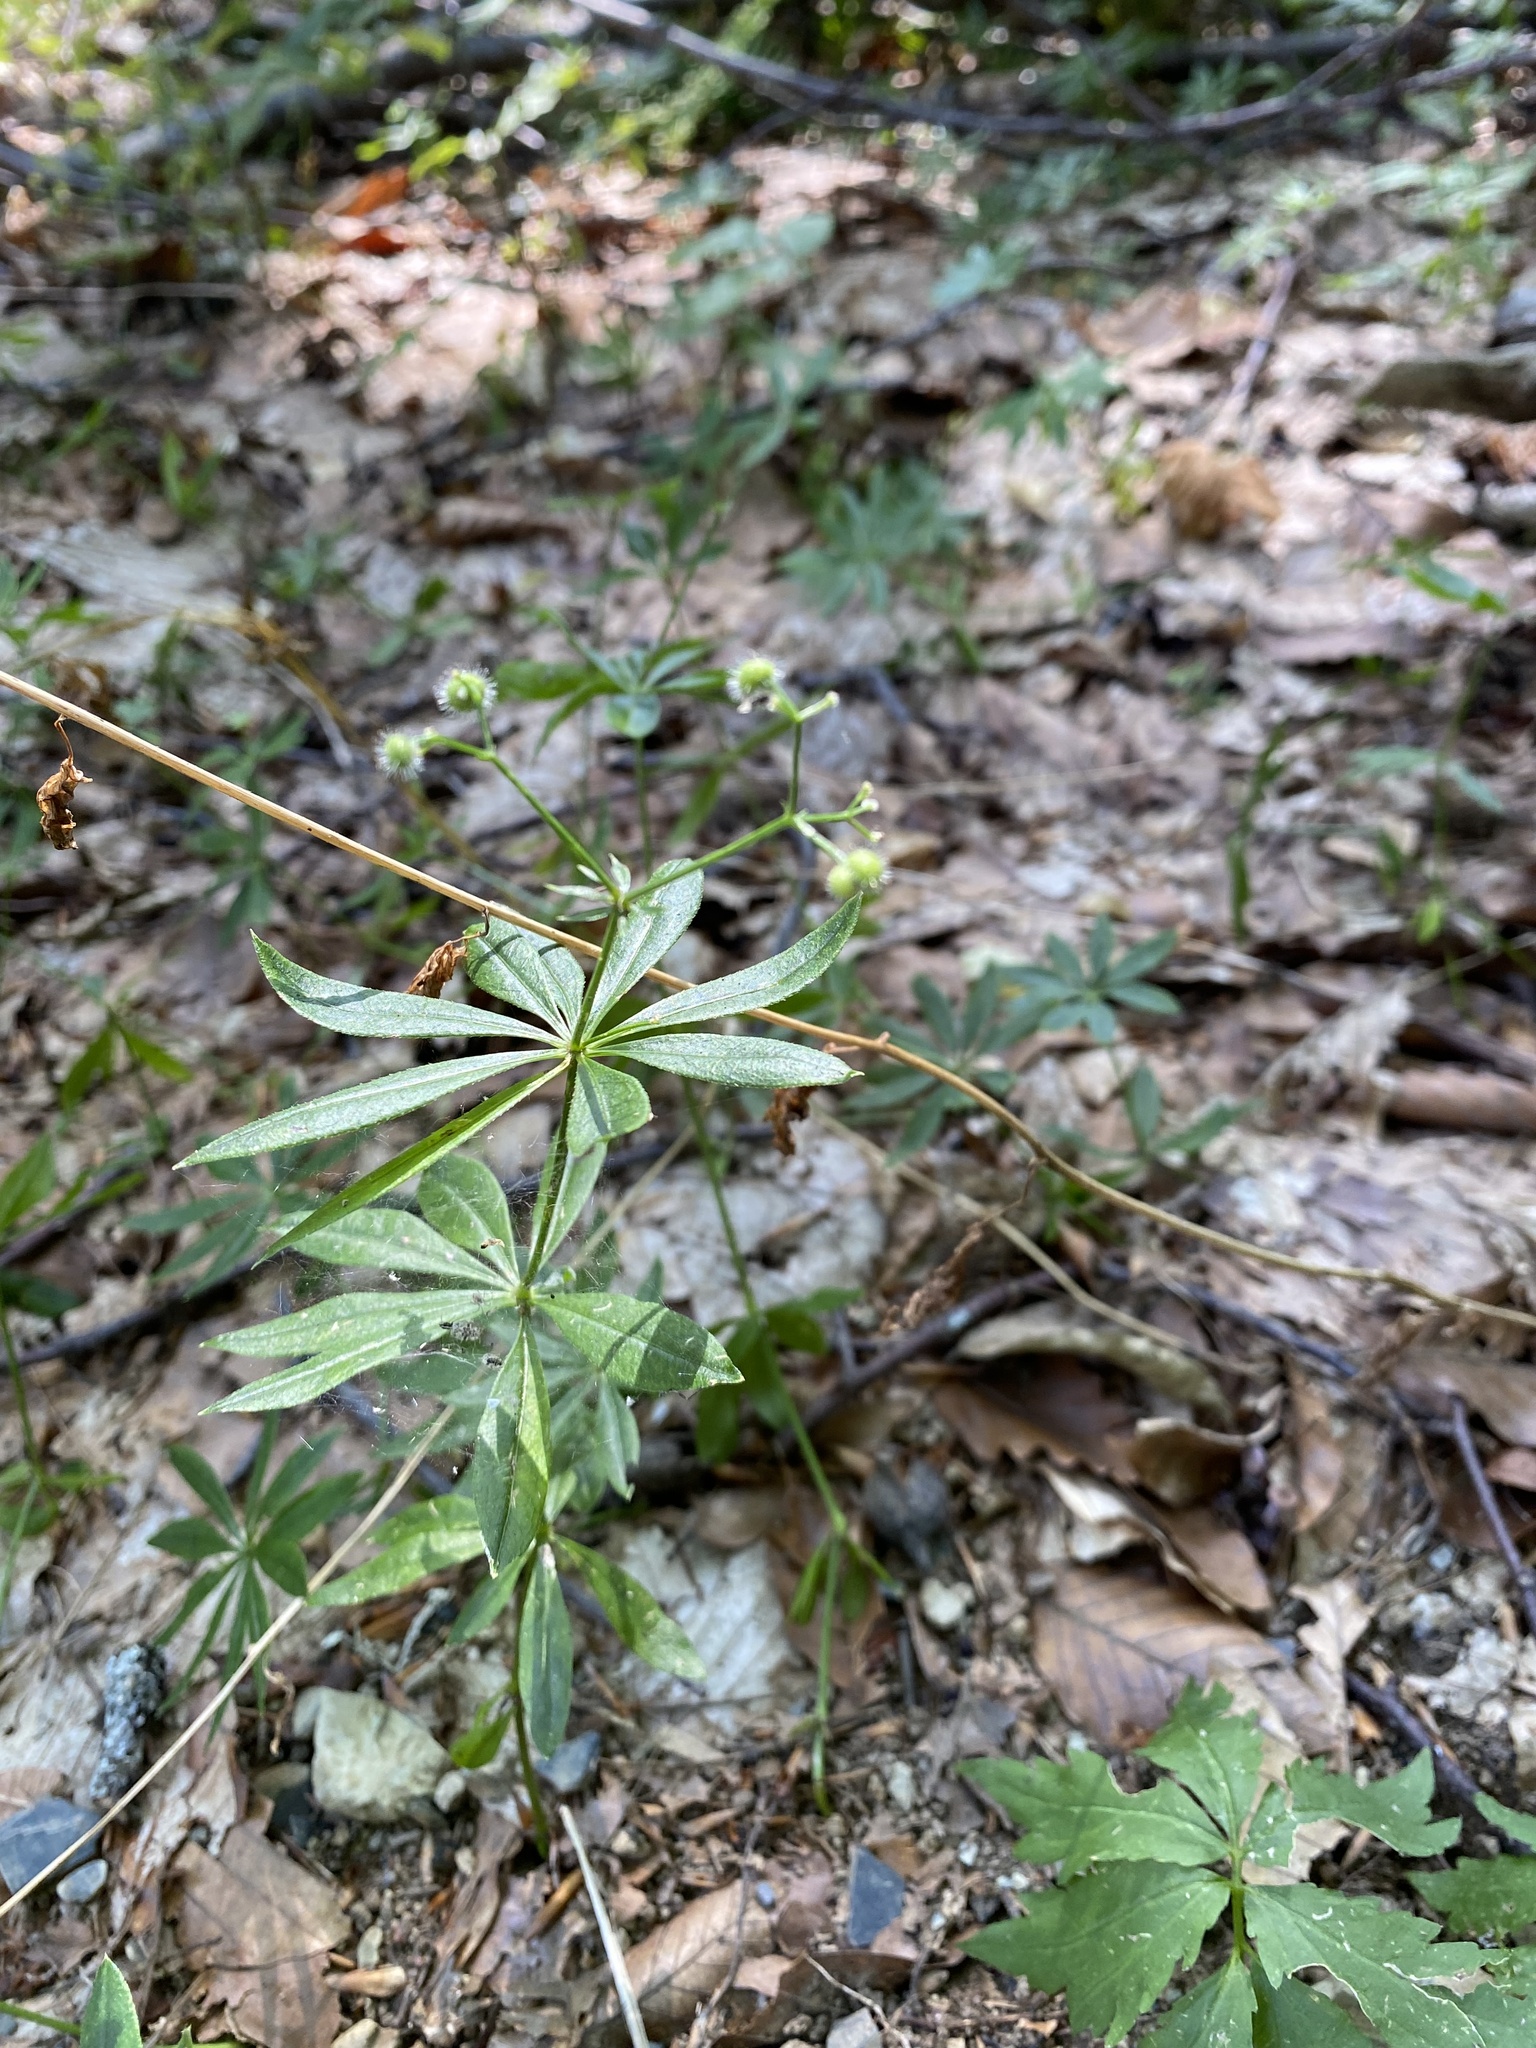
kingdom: Plantae
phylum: Tracheophyta
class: Magnoliopsida
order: Gentianales
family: Rubiaceae
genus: Galium
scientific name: Galium odoratum
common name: Sweet woodruff
